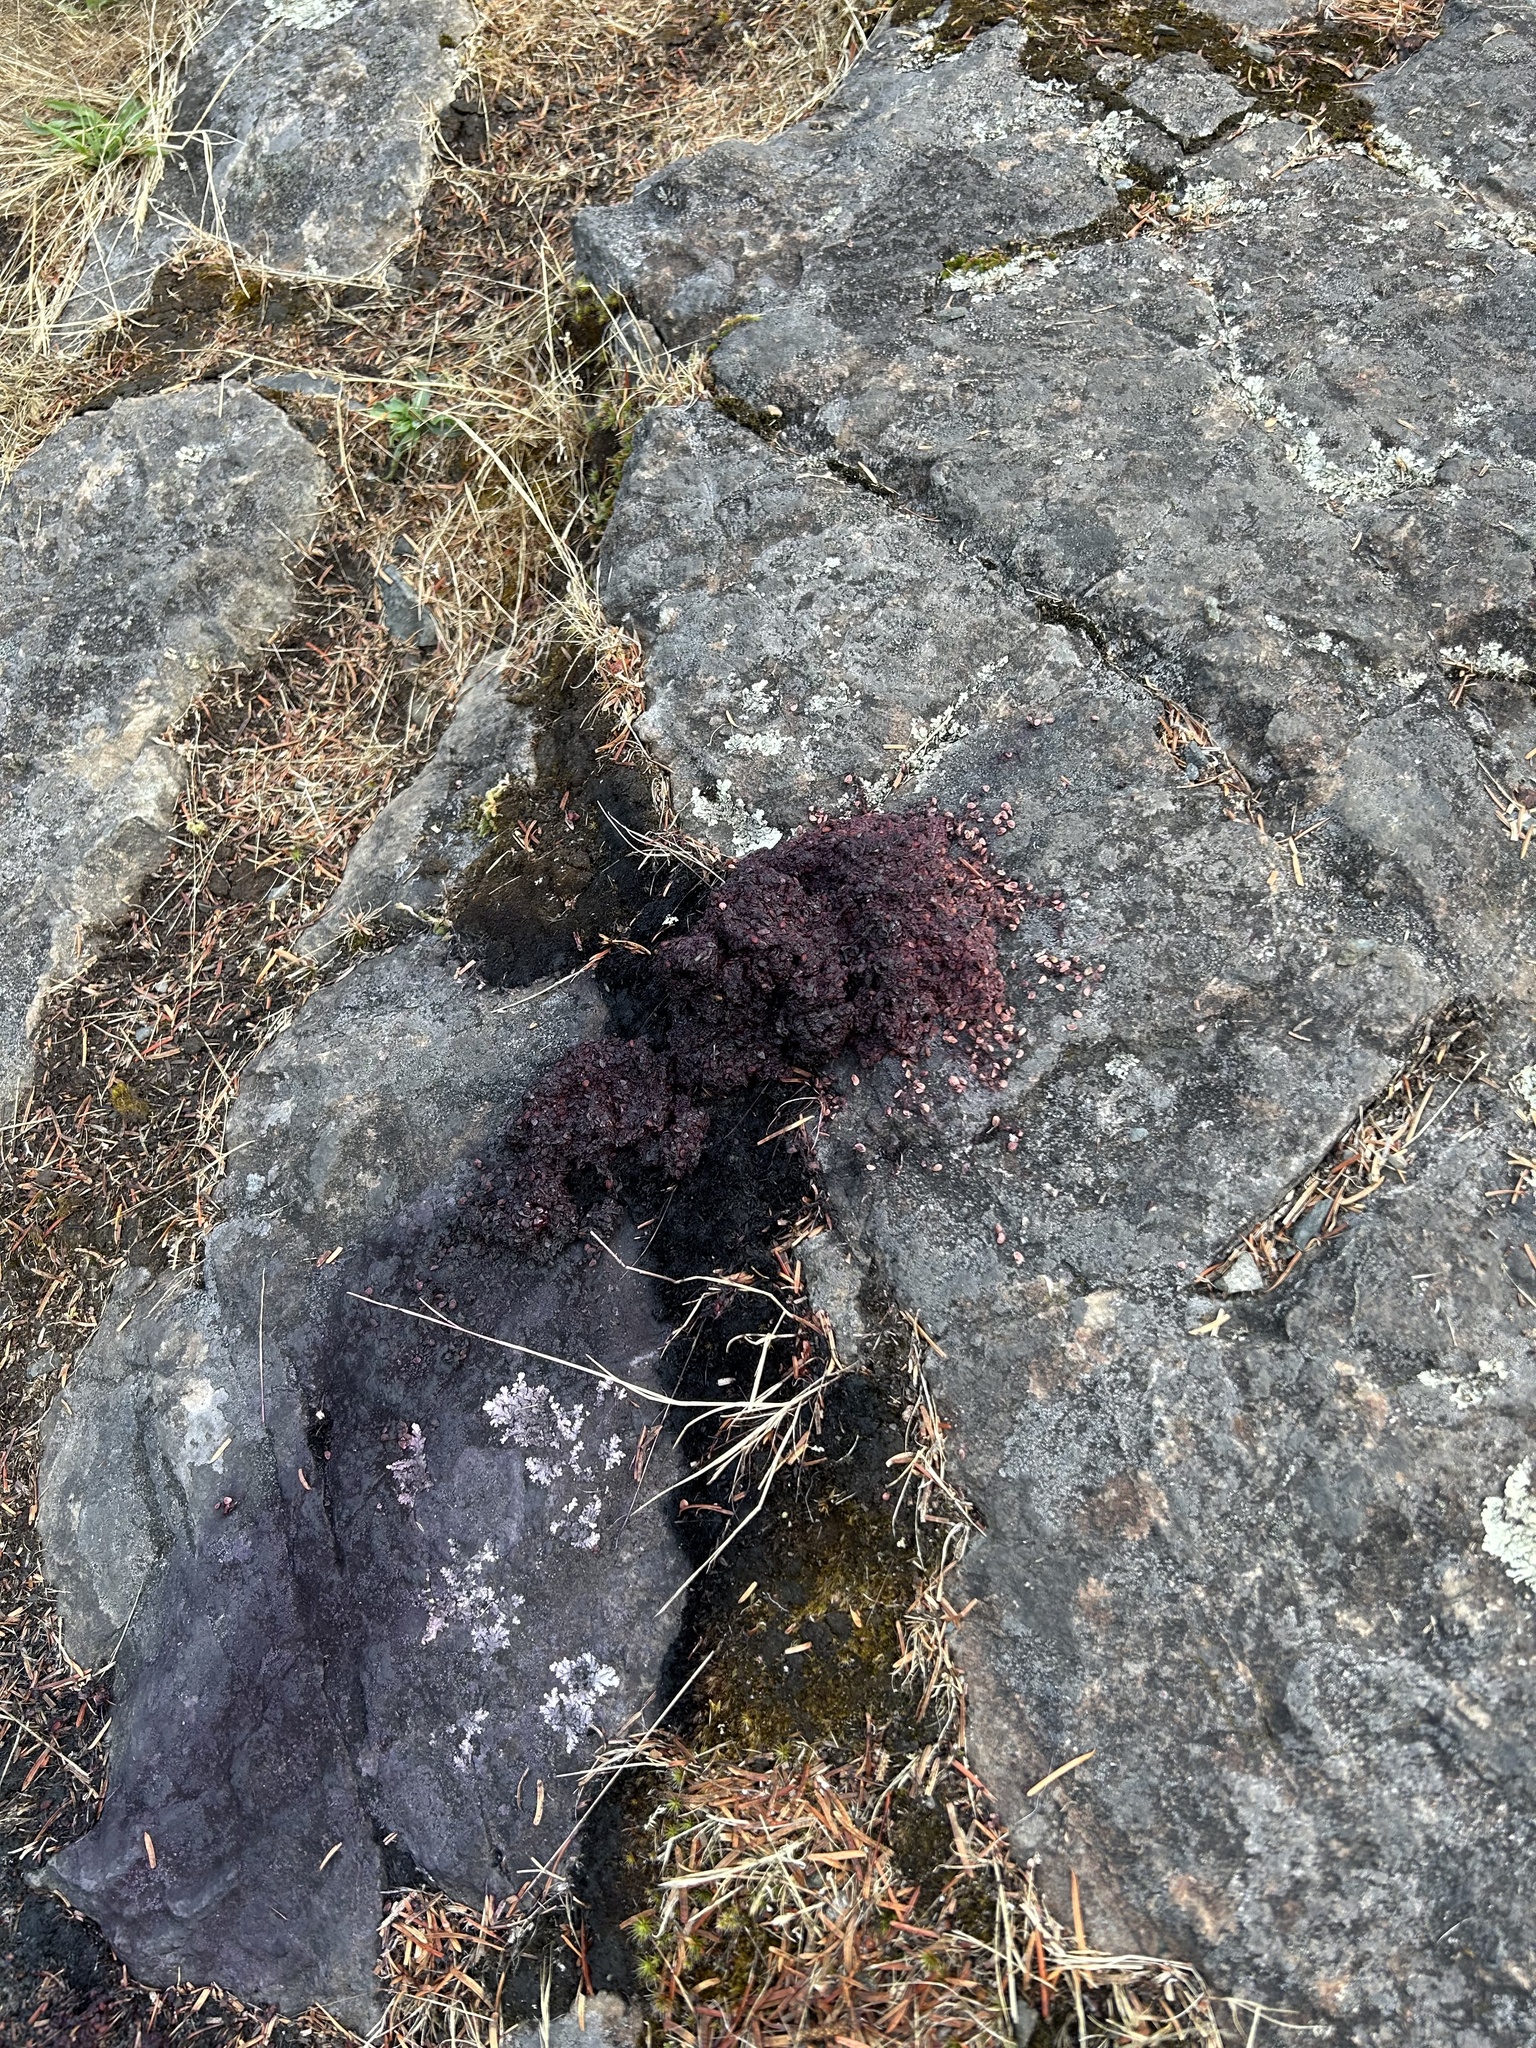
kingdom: Animalia
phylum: Chordata
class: Mammalia
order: Carnivora
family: Ursidae
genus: Ursus
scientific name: Ursus americanus
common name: American black bear
